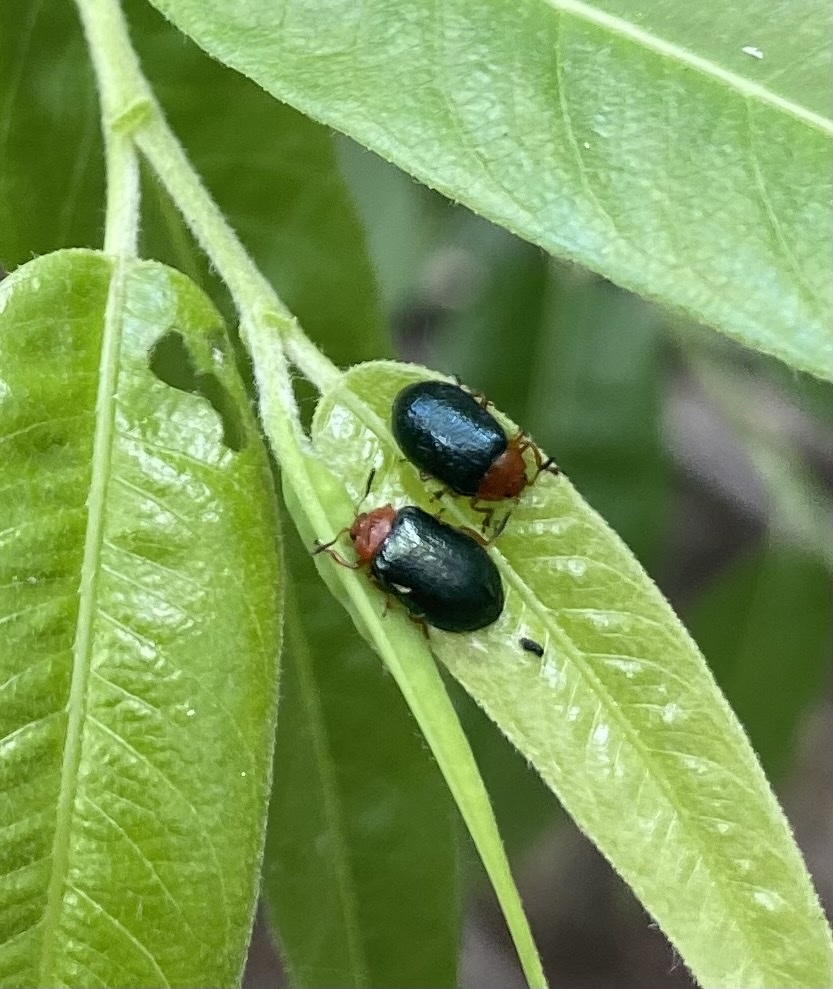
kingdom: Animalia
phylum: Arthropoda
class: Insecta
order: Coleoptera
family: Chrysomelidae
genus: Plagiodera
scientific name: Plagiodera arizonae
